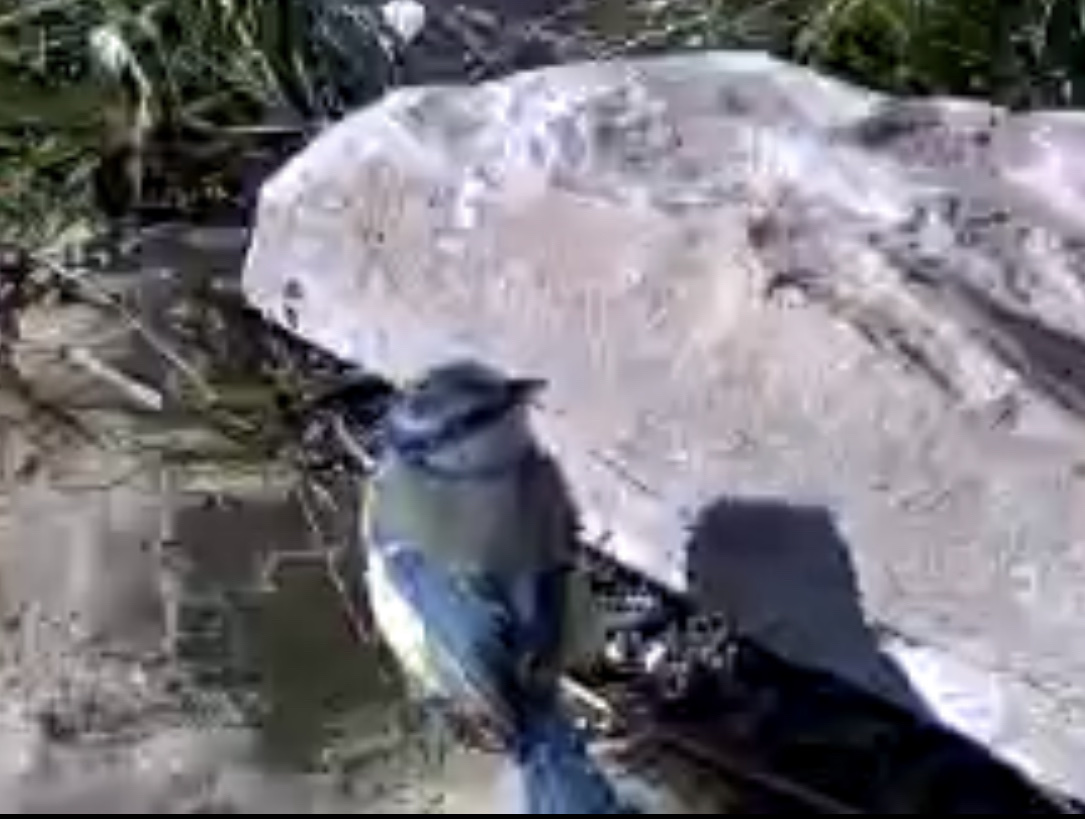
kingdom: Animalia
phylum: Chordata
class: Aves
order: Passeriformes
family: Paridae
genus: Cyanistes
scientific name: Cyanistes caeruleus
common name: Eurasian blue tit
